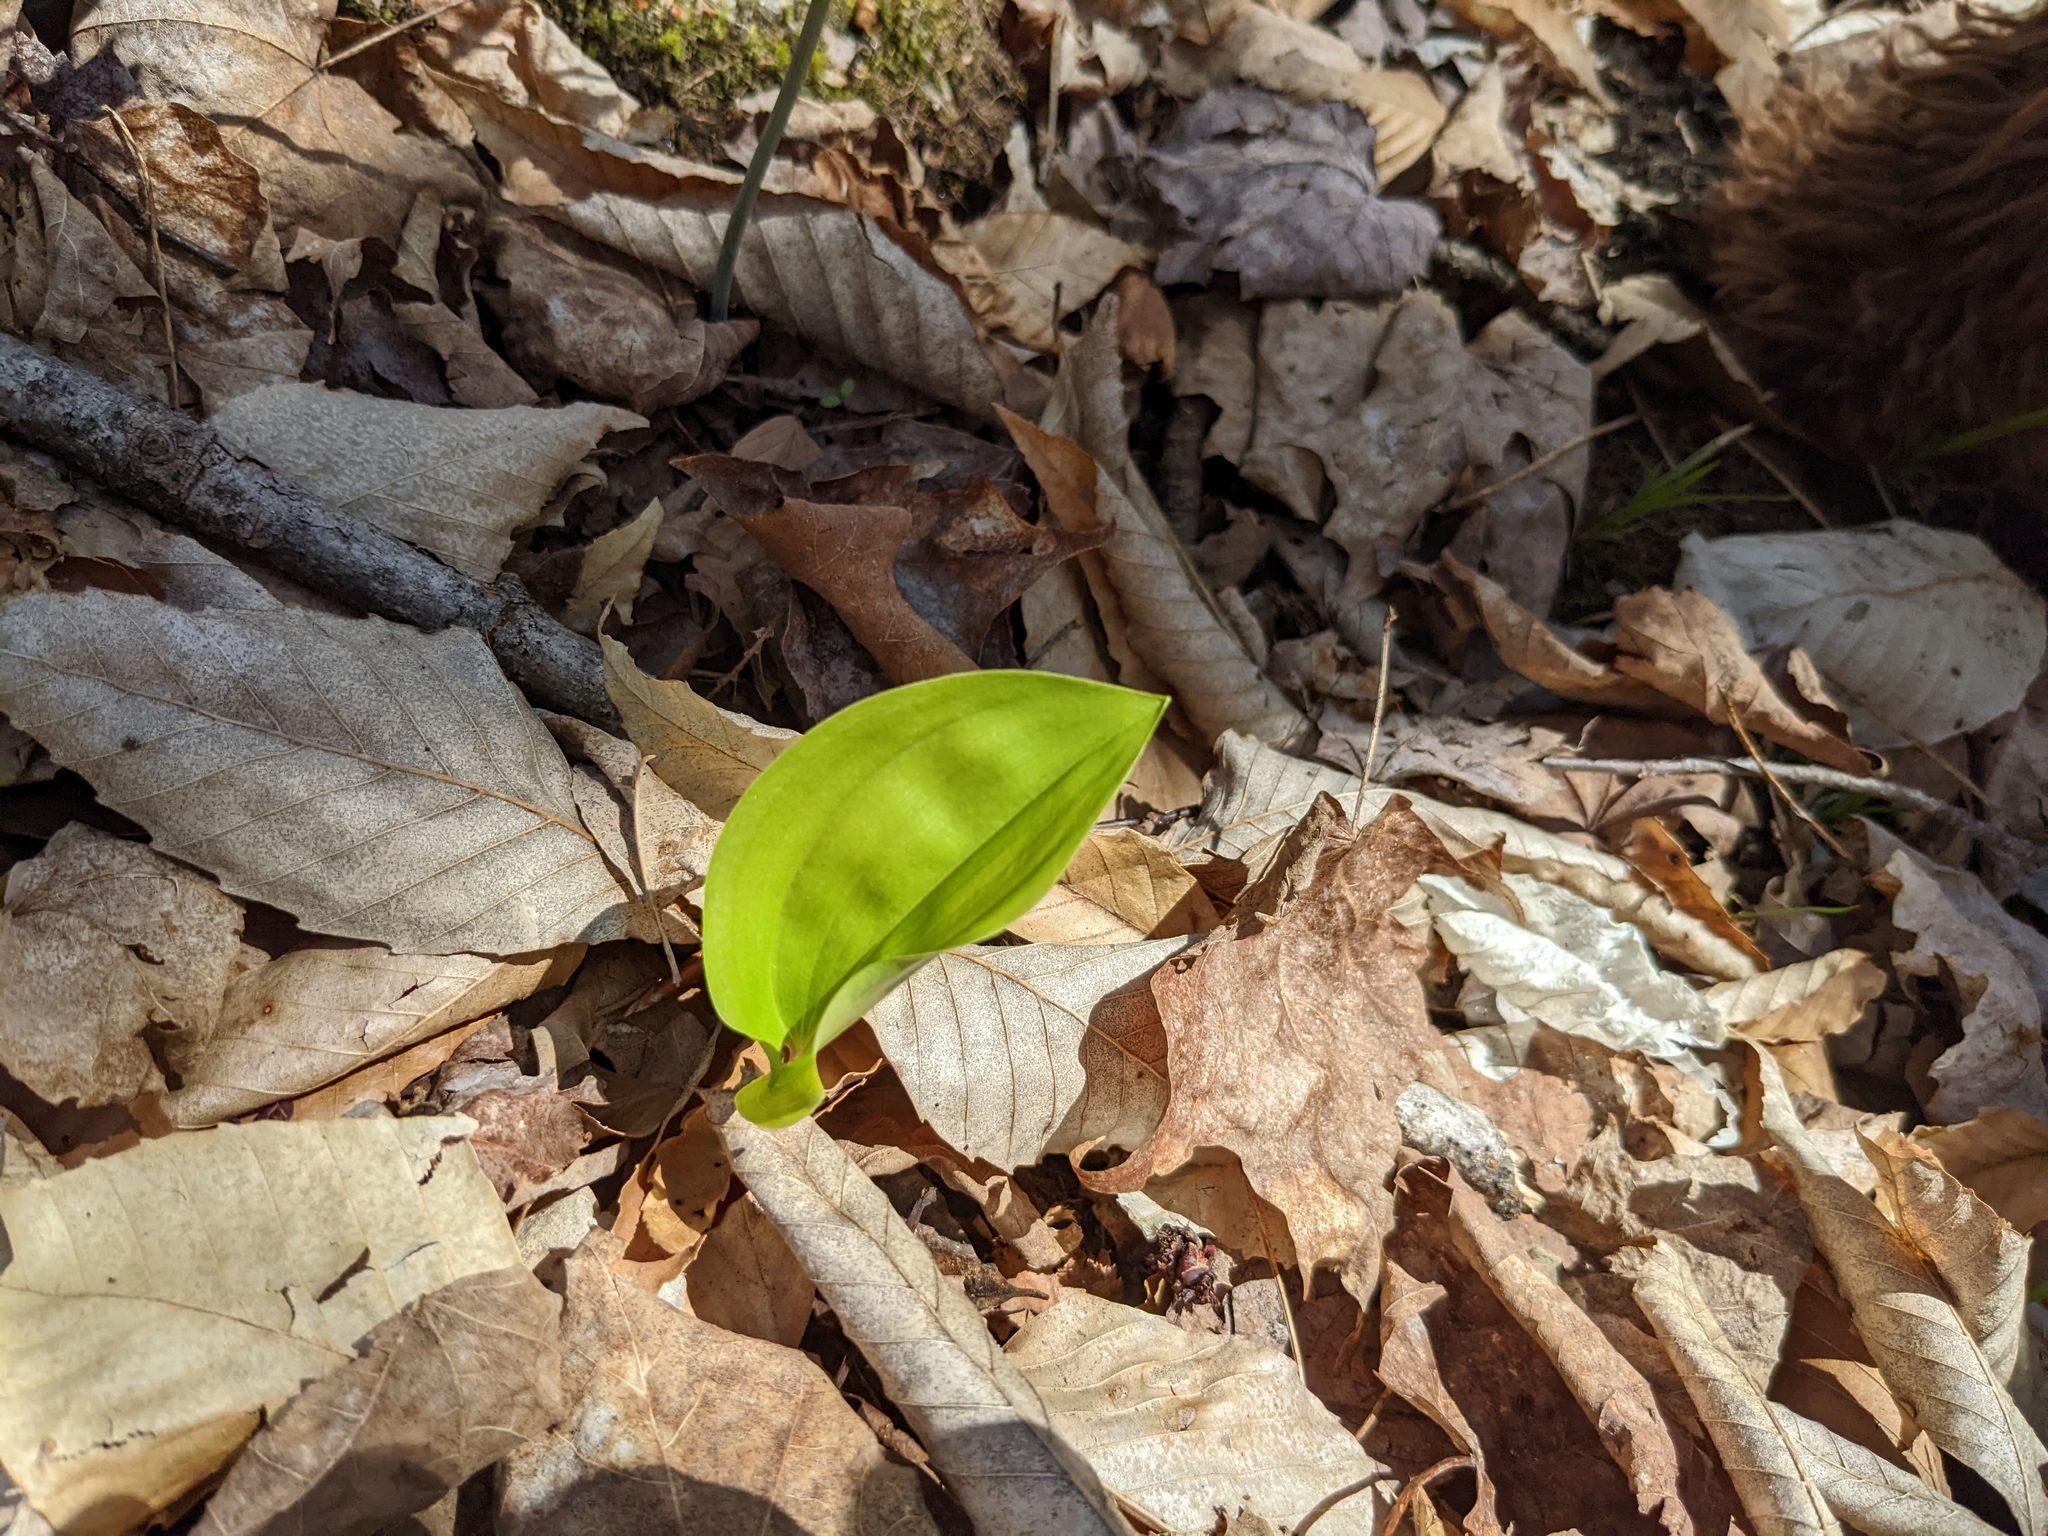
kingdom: Plantae
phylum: Tracheophyta
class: Liliopsida
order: Asparagales
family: Asparagaceae
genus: Maianthemum
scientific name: Maianthemum canadense
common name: False lily-of-the-valley
